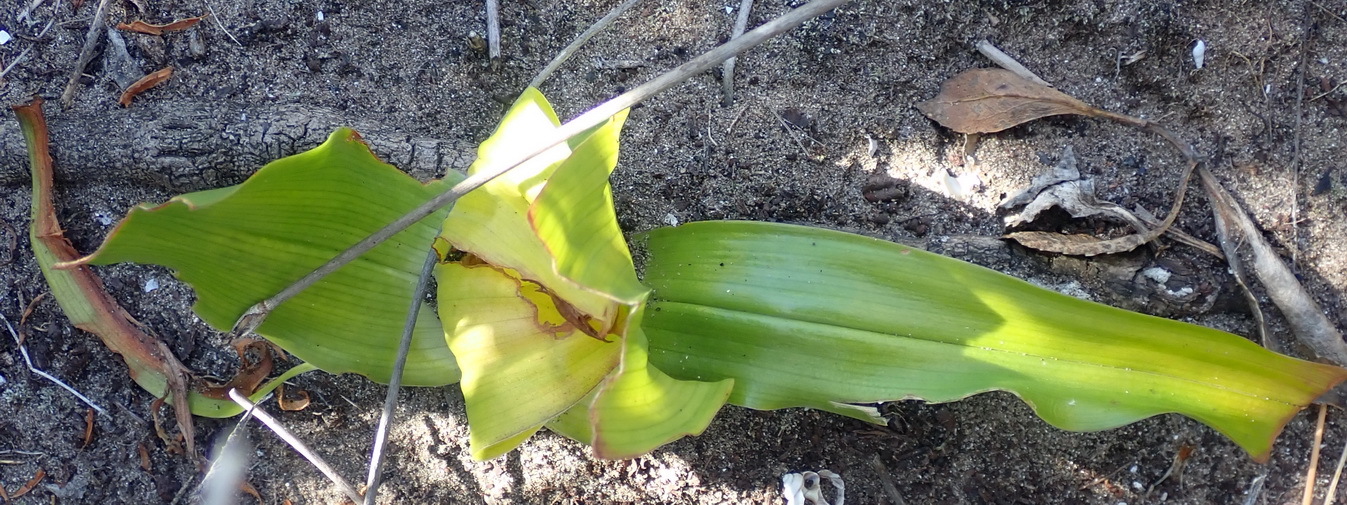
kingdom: Plantae
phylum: Tracheophyta
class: Liliopsida
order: Liliales
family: Colchicaceae
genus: Colchicum
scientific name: Colchicum eucomoides
